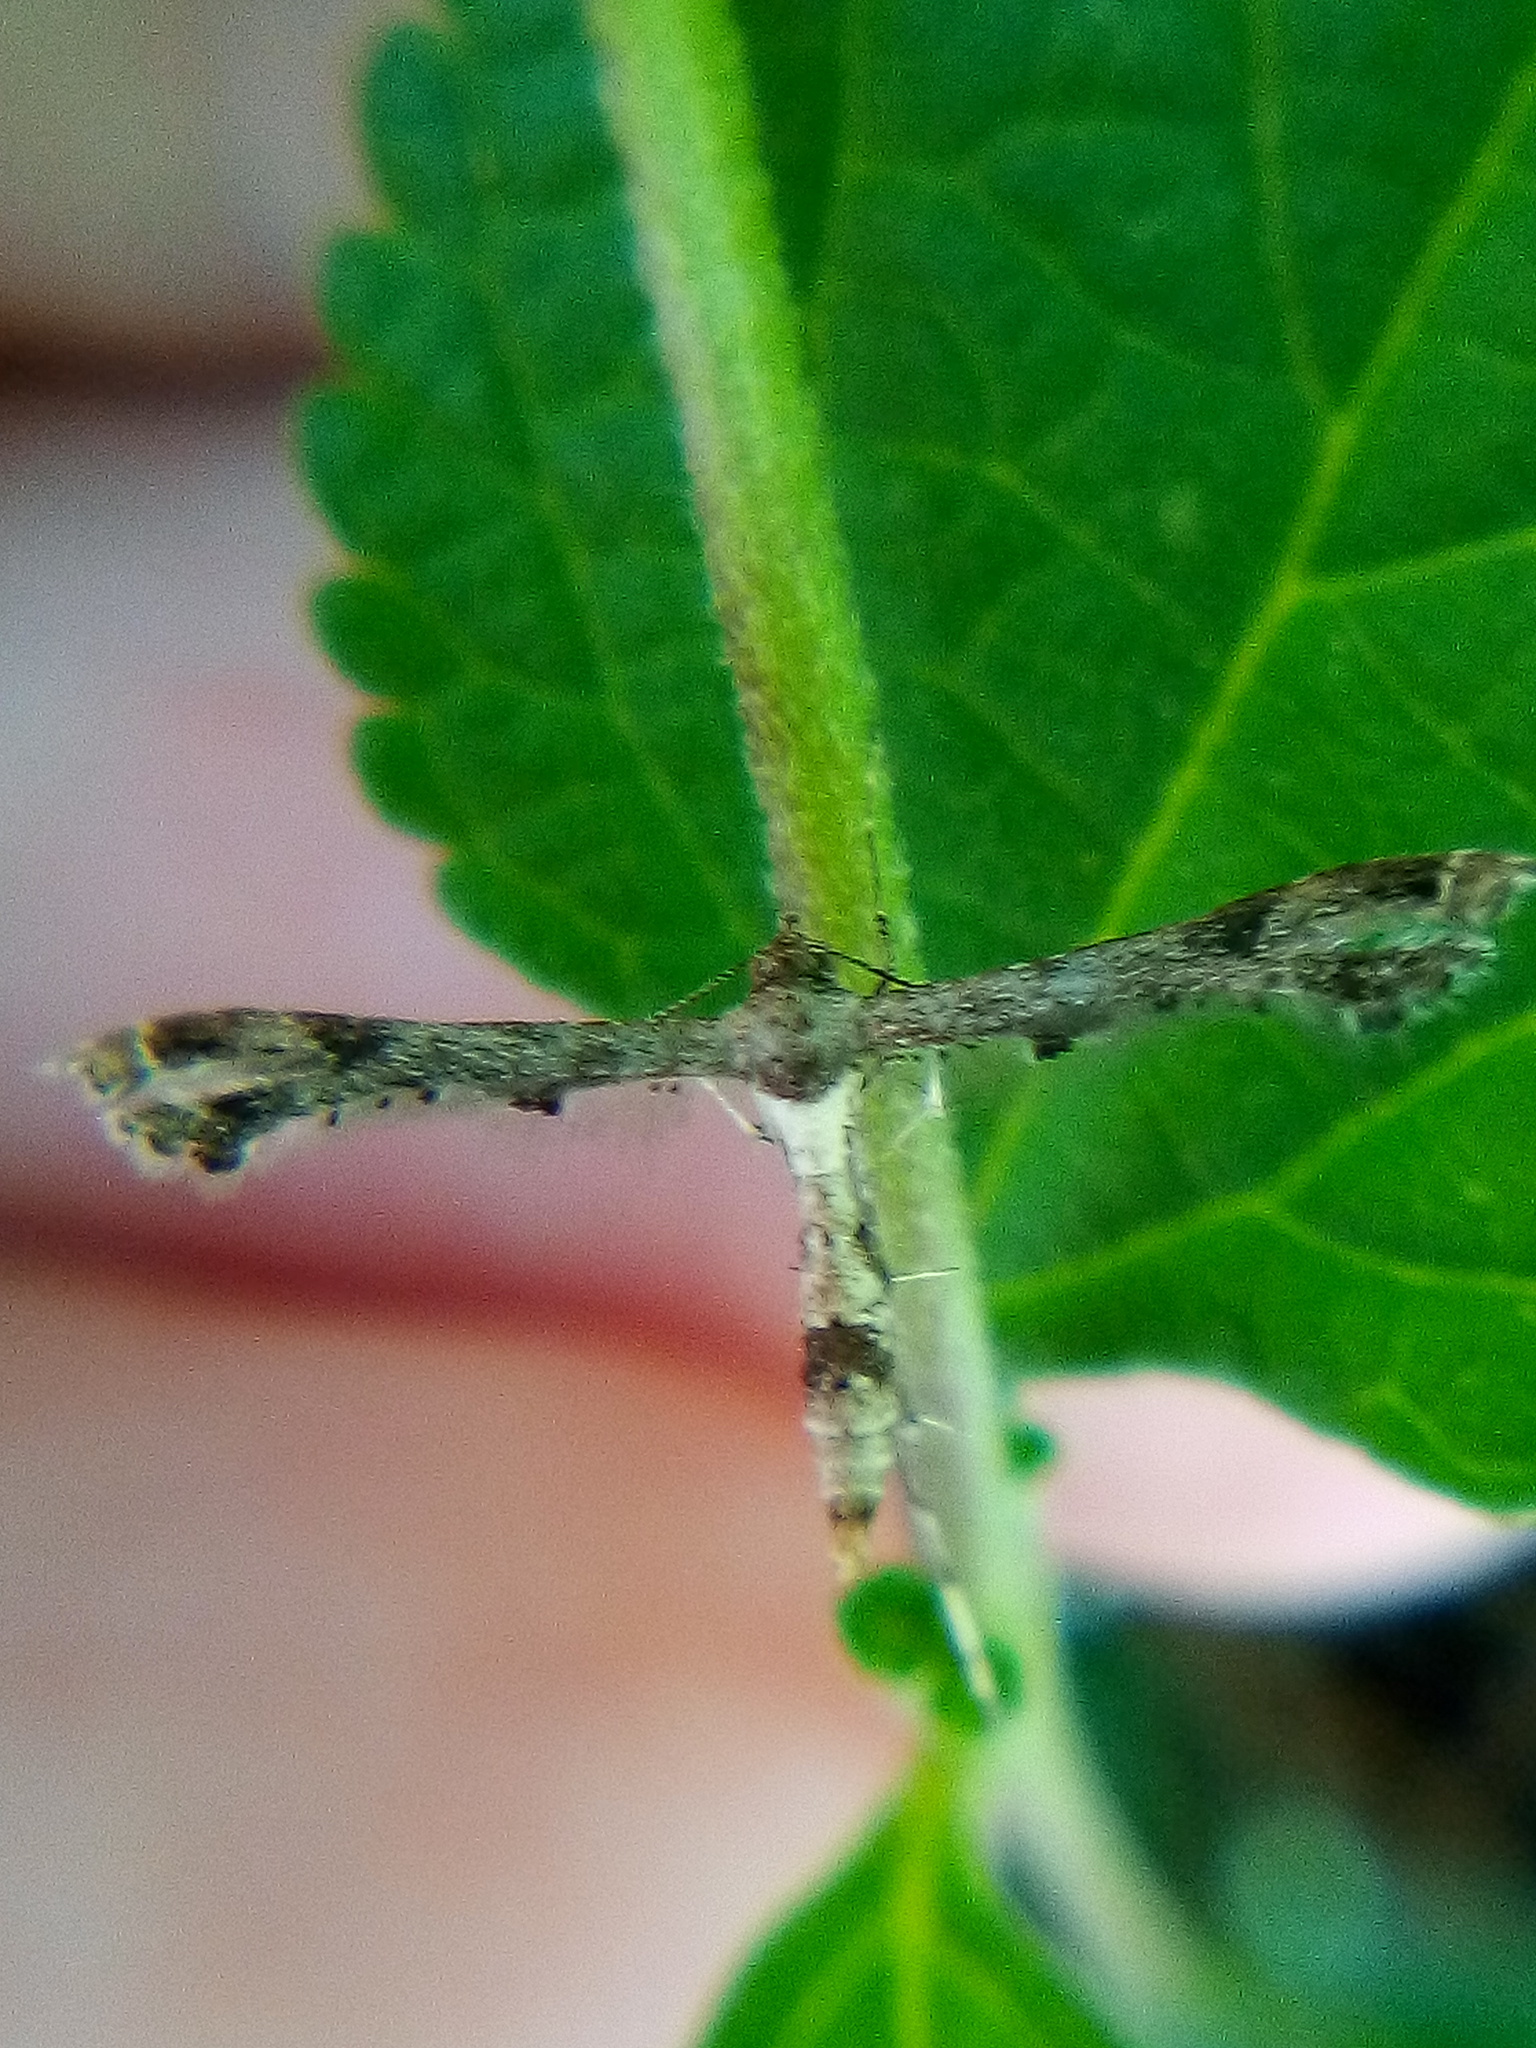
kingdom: Animalia
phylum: Arthropoda
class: Insecta
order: Lepidoptera
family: Pterophoridae
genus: Lantanophaga
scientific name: Lantanophaga pusillidactylus
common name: Moth
